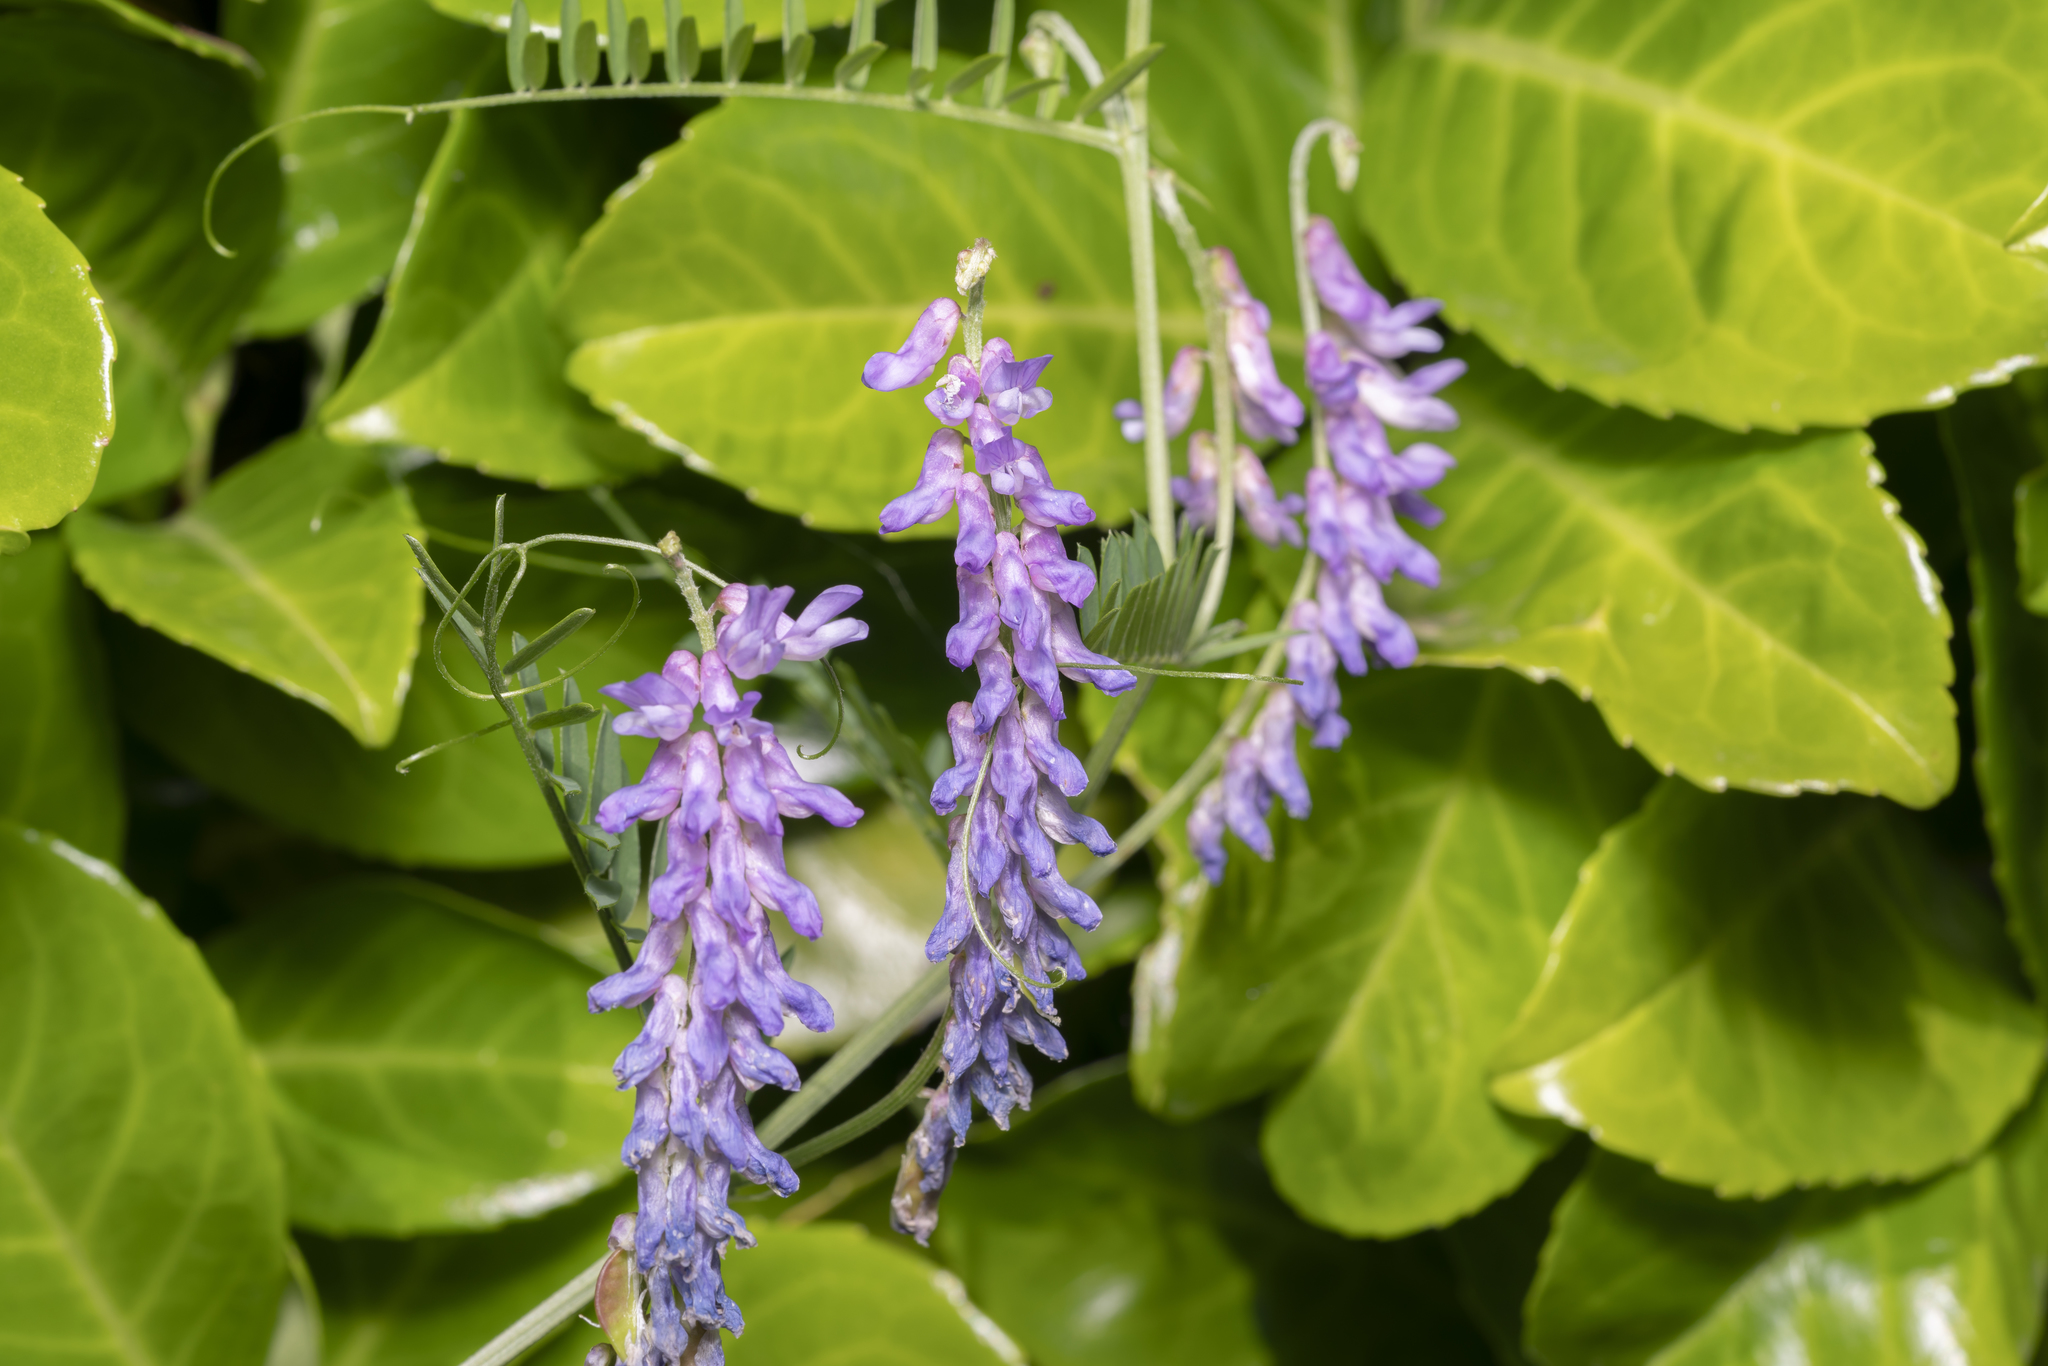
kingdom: Plantae
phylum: Tracheophyta
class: Magnoliopsida
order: Fabales
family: Fabaceae
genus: Vicia
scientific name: Vicia cracca
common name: Bird vetch
